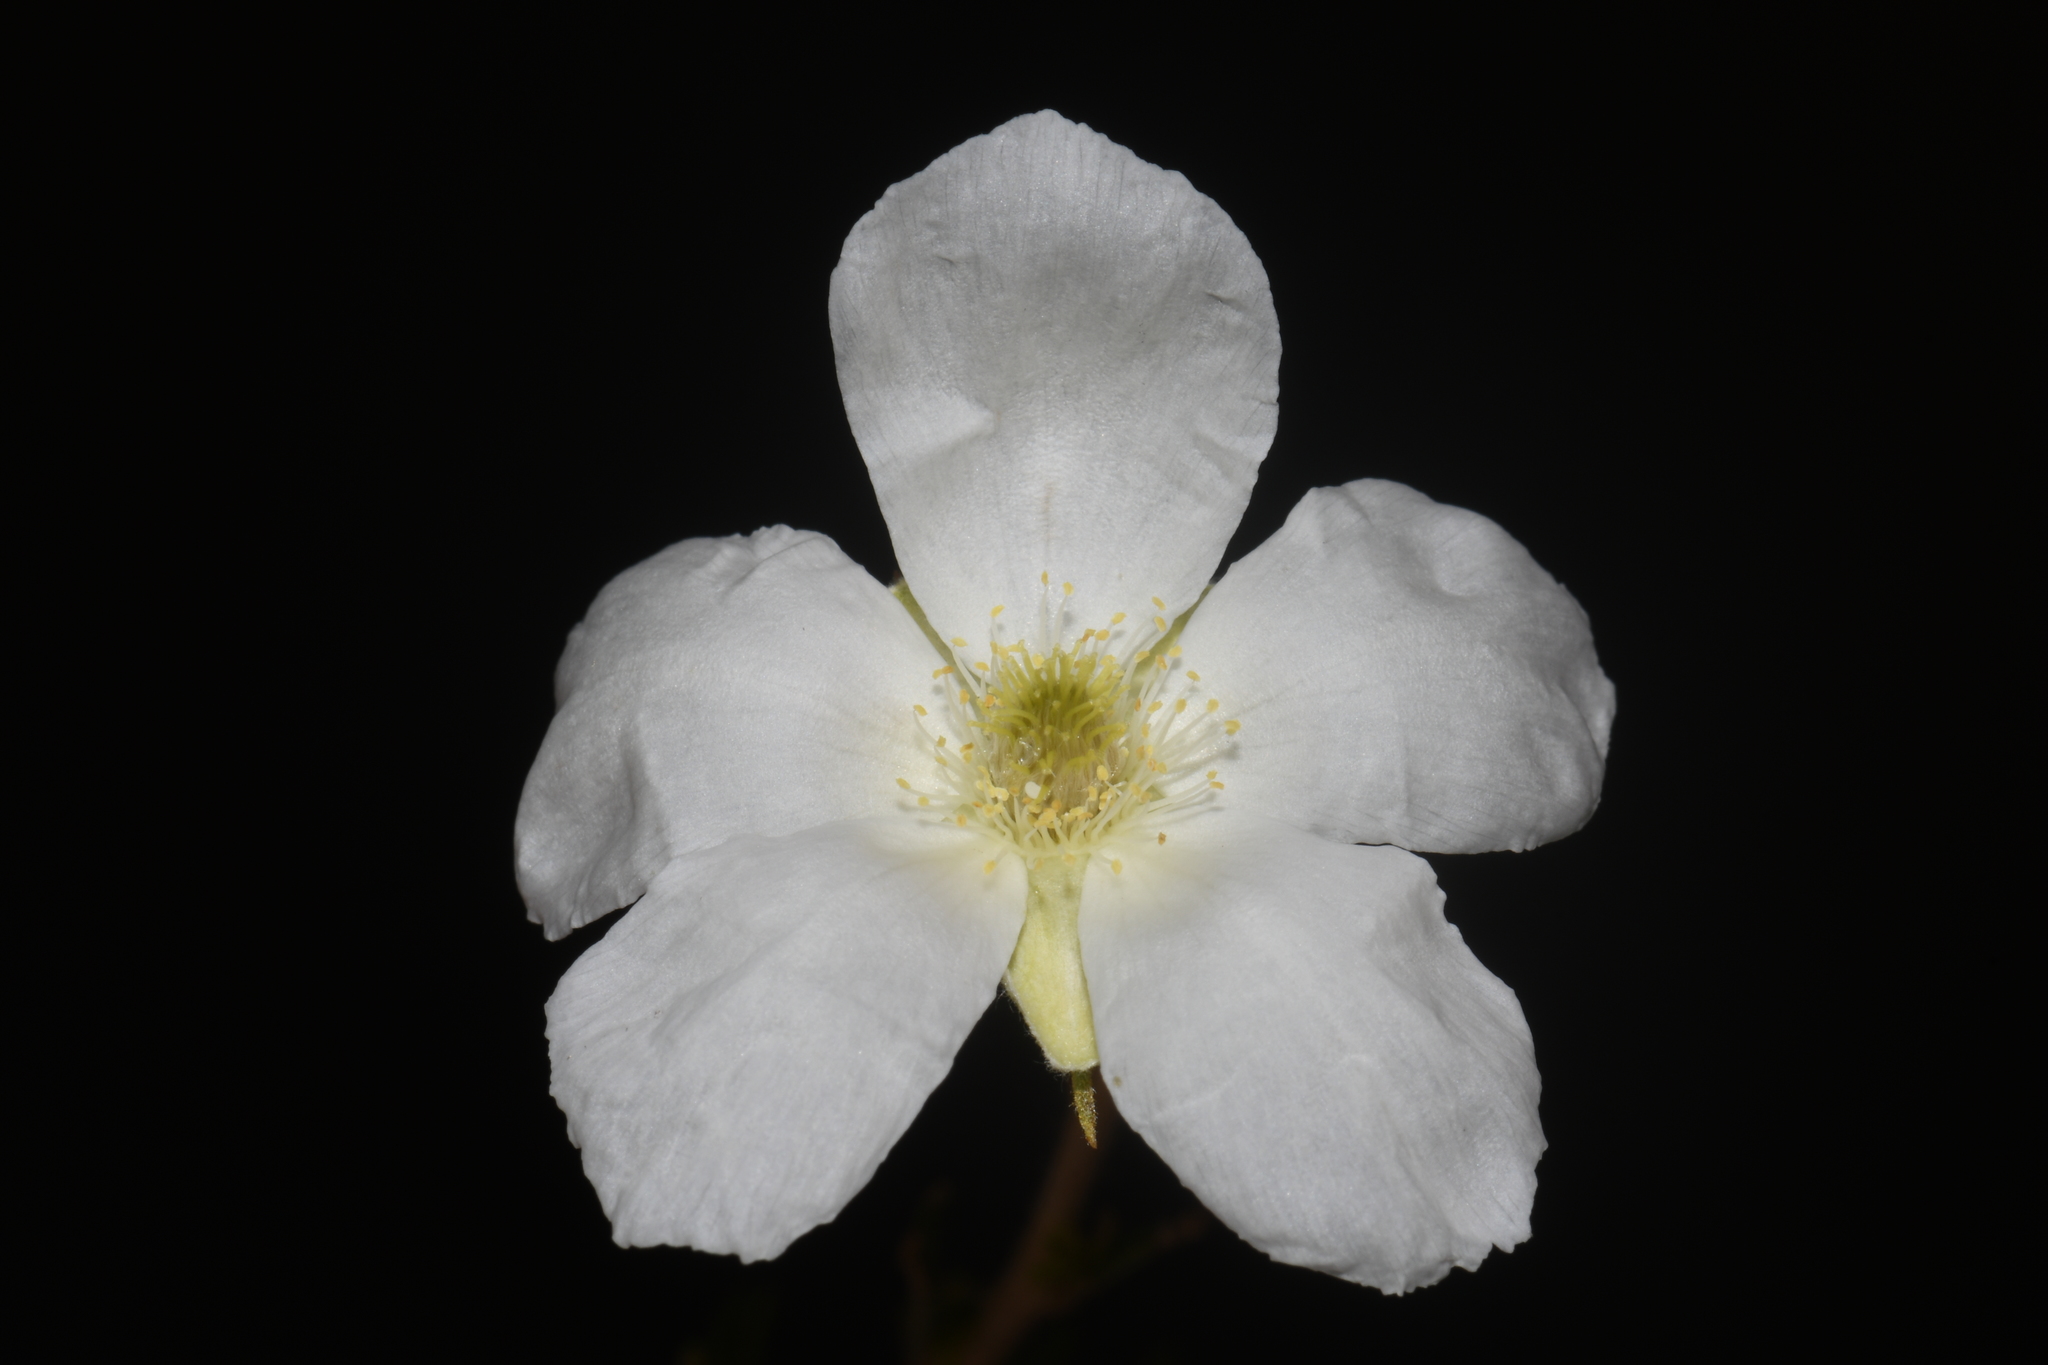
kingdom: Plantae
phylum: Tracheophyta
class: Magnoliopsida
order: Rosales
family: Rosaceae
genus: Fallugia
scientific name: Fallugia paradoxa
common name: Apache-plume
